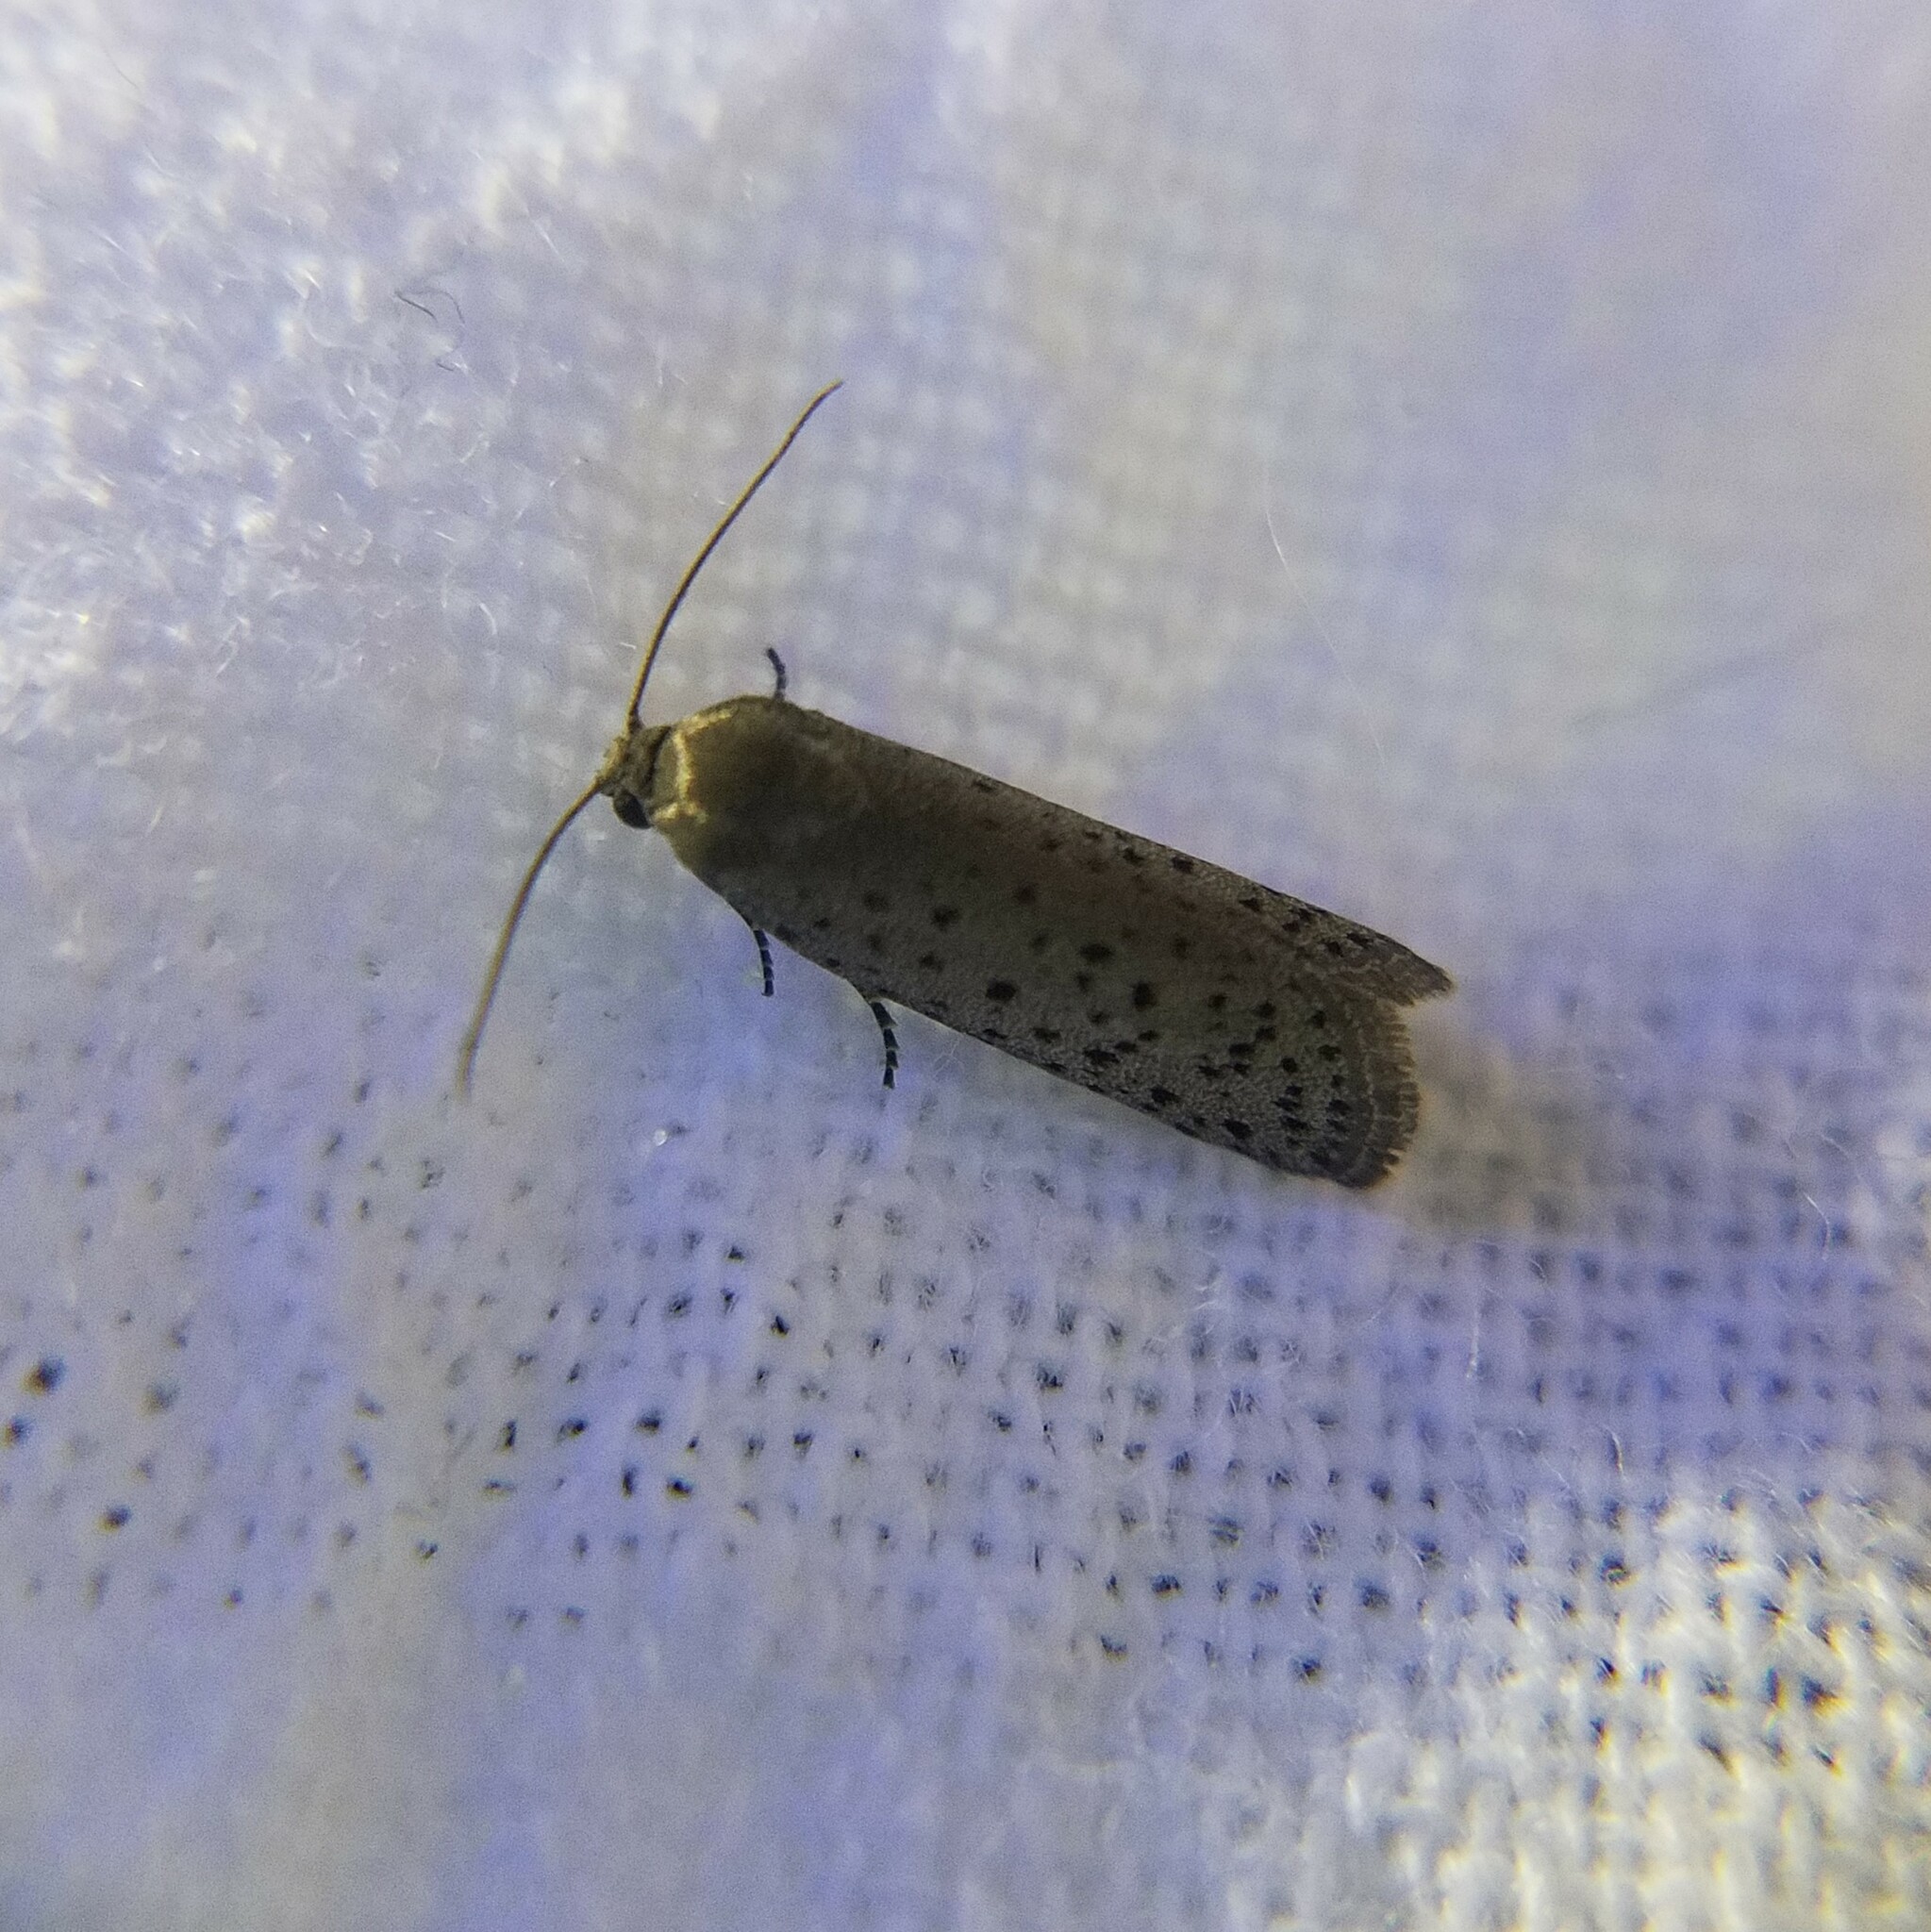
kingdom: Animalia
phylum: Arthropoda
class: Insecta
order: Lepidoptera
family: Galacticidae
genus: Homadaula
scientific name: Homadaula anisocentra
